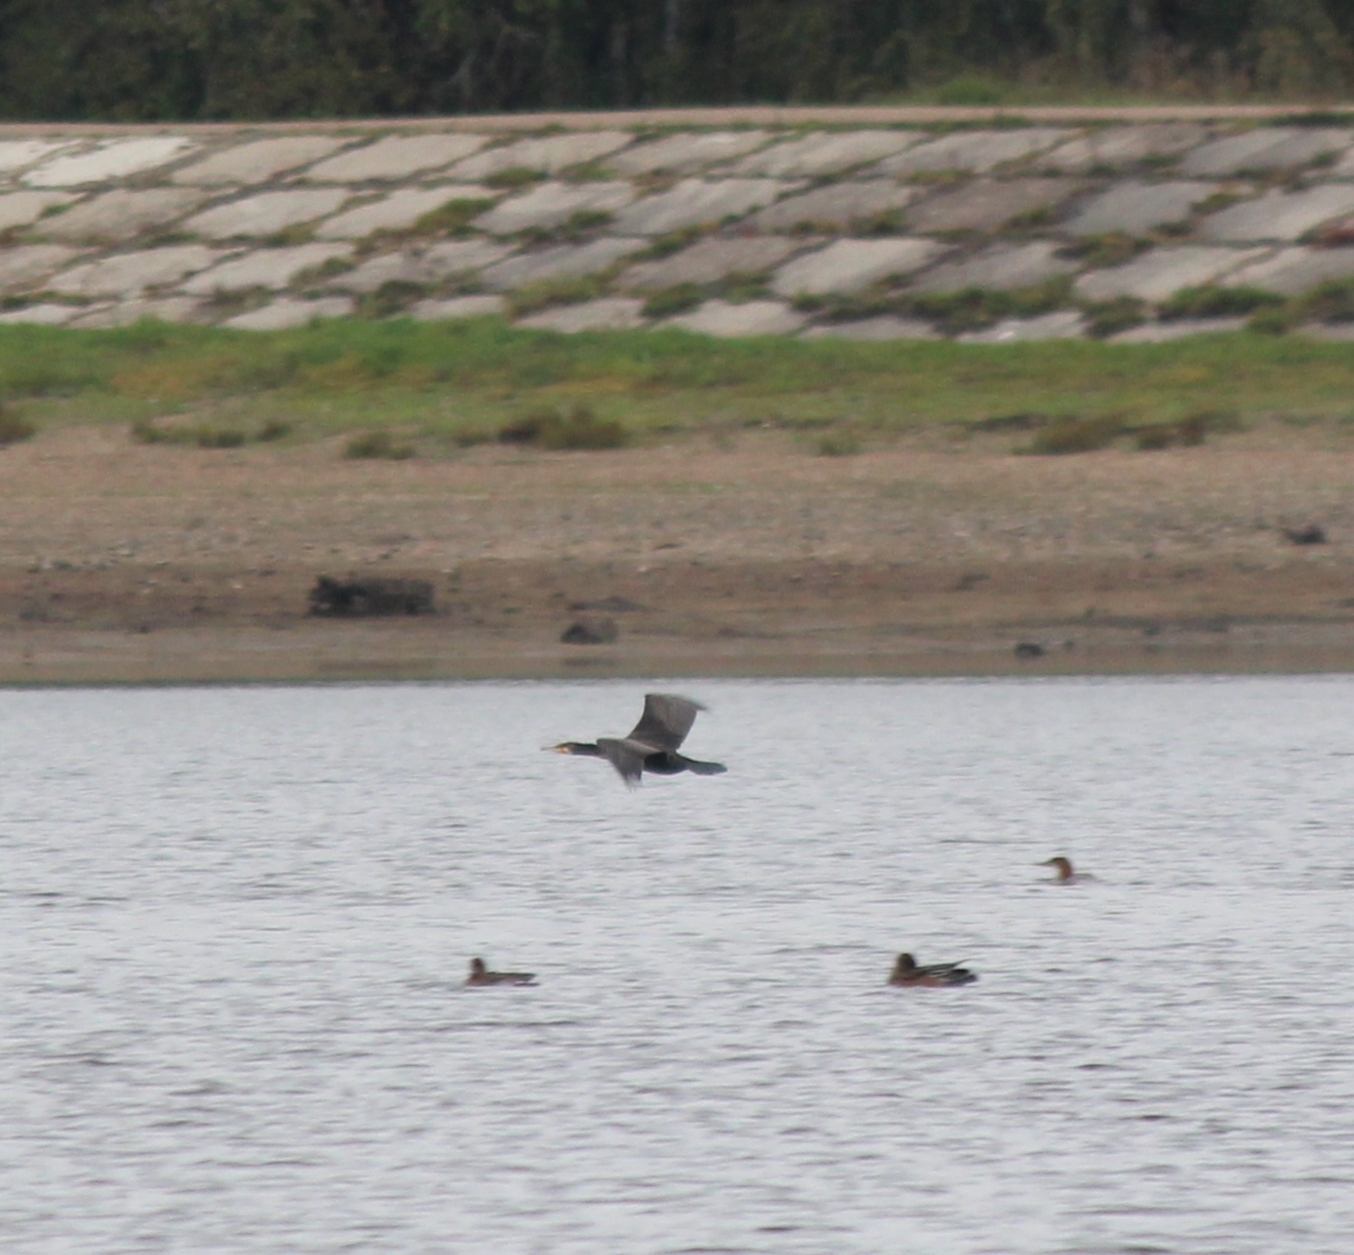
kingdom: Animalia
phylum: Chordata
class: Aves
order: Suliformes
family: Phalacrocoracidae
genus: Phalacrocorax
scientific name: Phalacrocorax carbo
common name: Great cormorant
